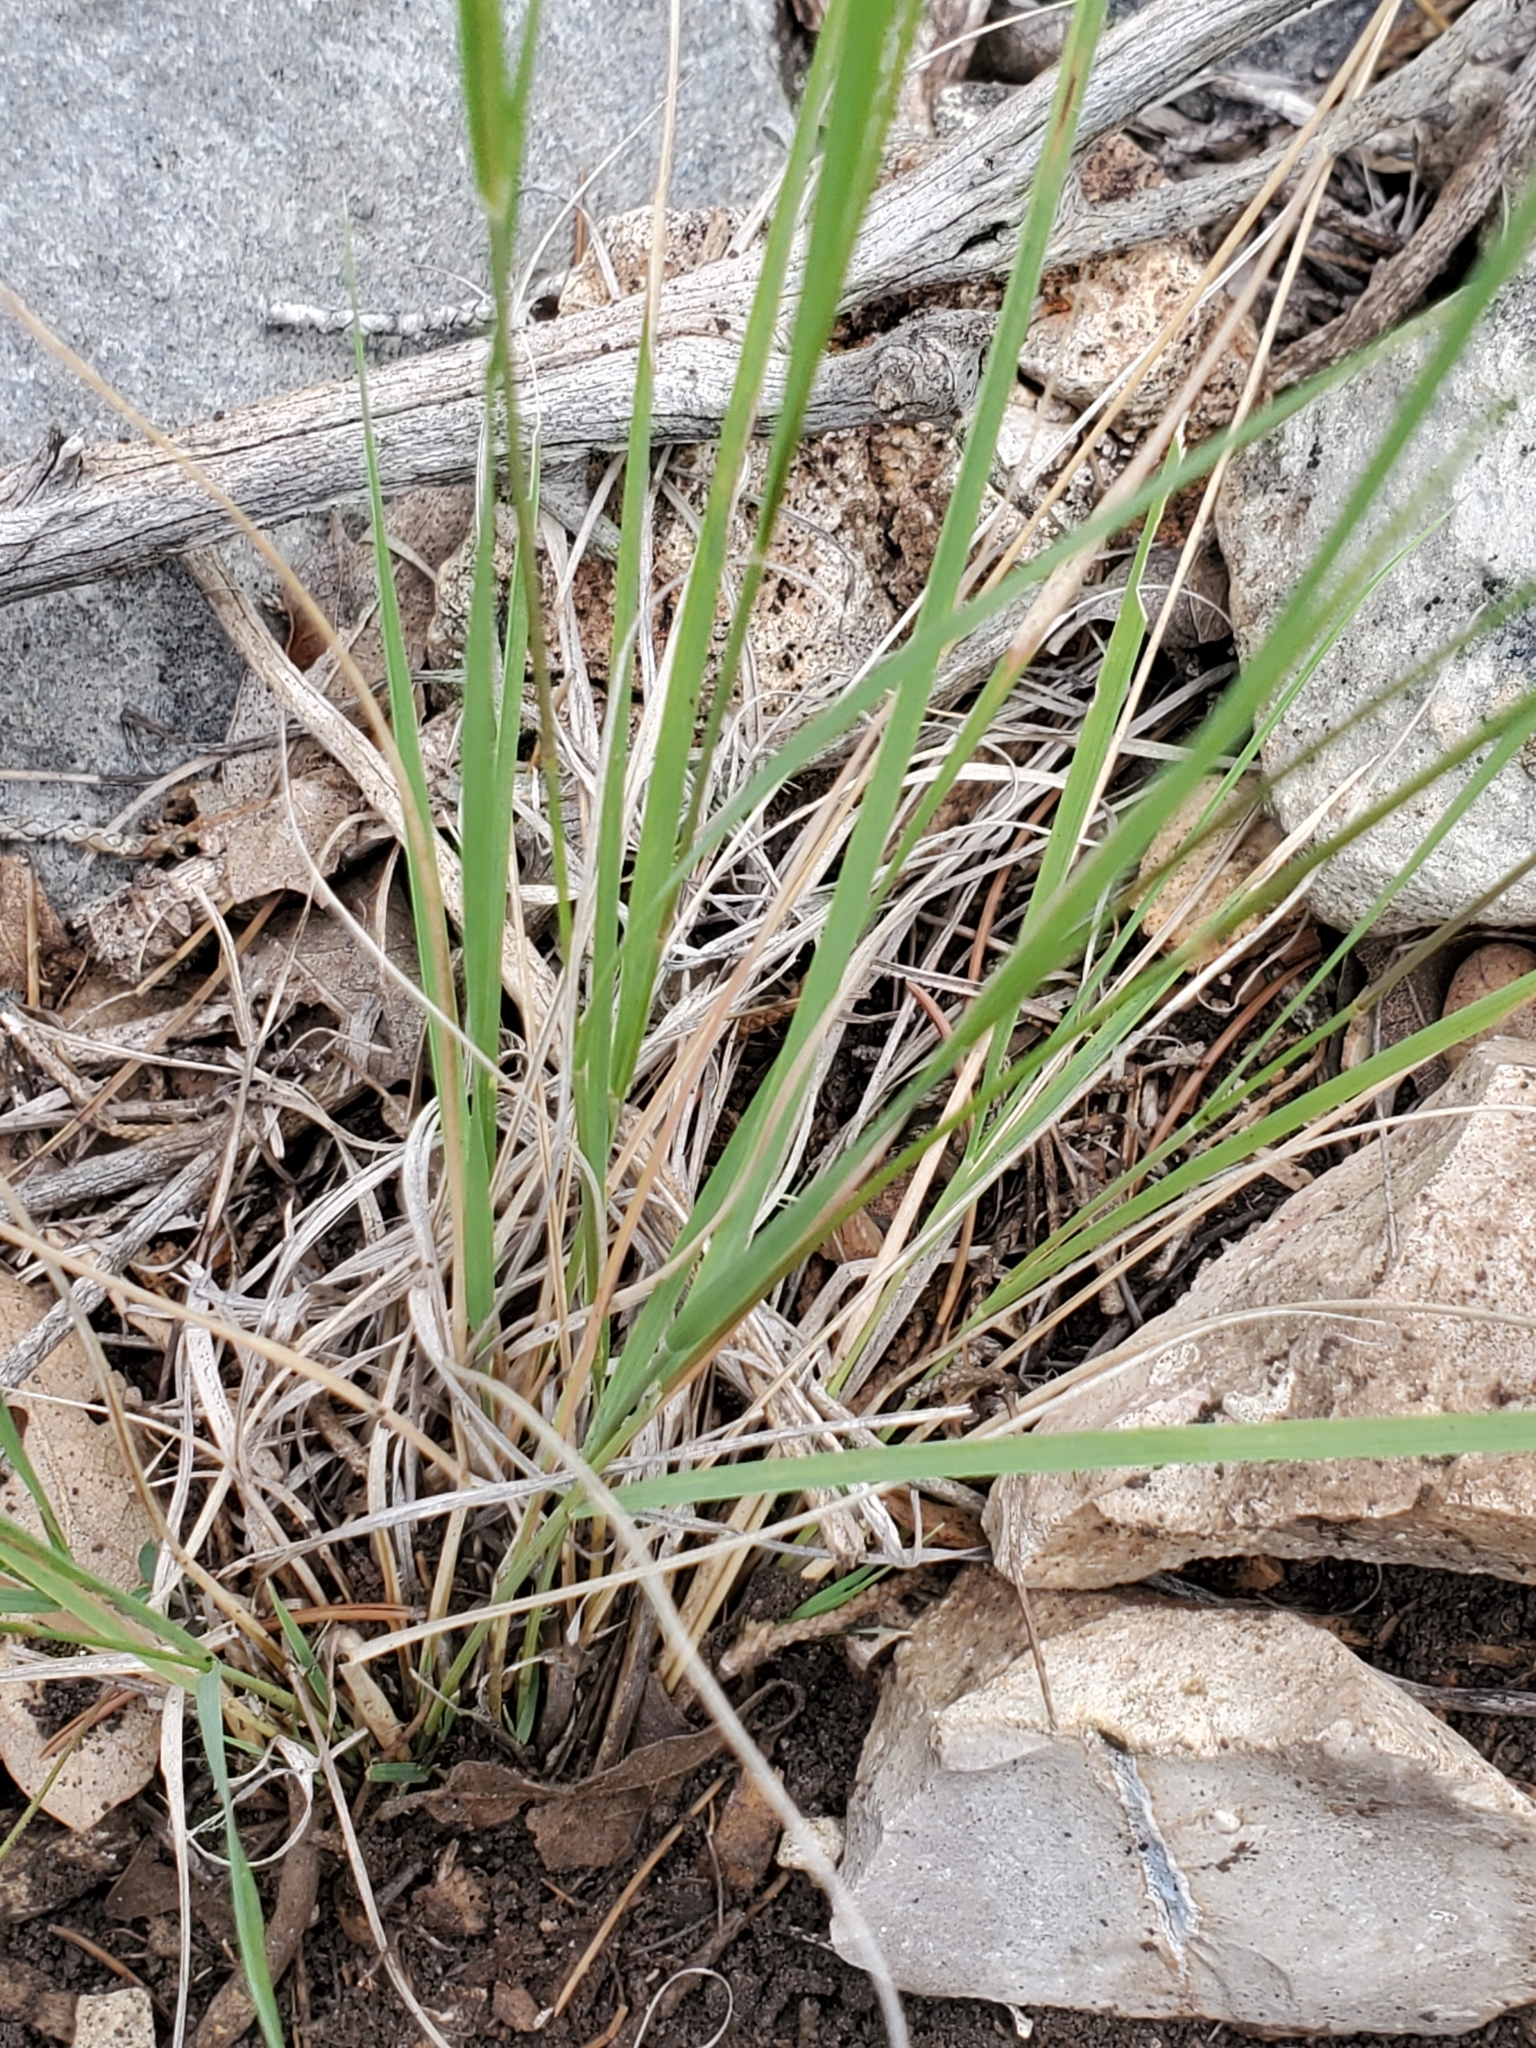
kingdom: Plantae
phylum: Tracheophyta
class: Liliopsida
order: Poales
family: Poaceae
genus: Bouteloua
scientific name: Bouteloua curtipendula
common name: Side-oats grama
